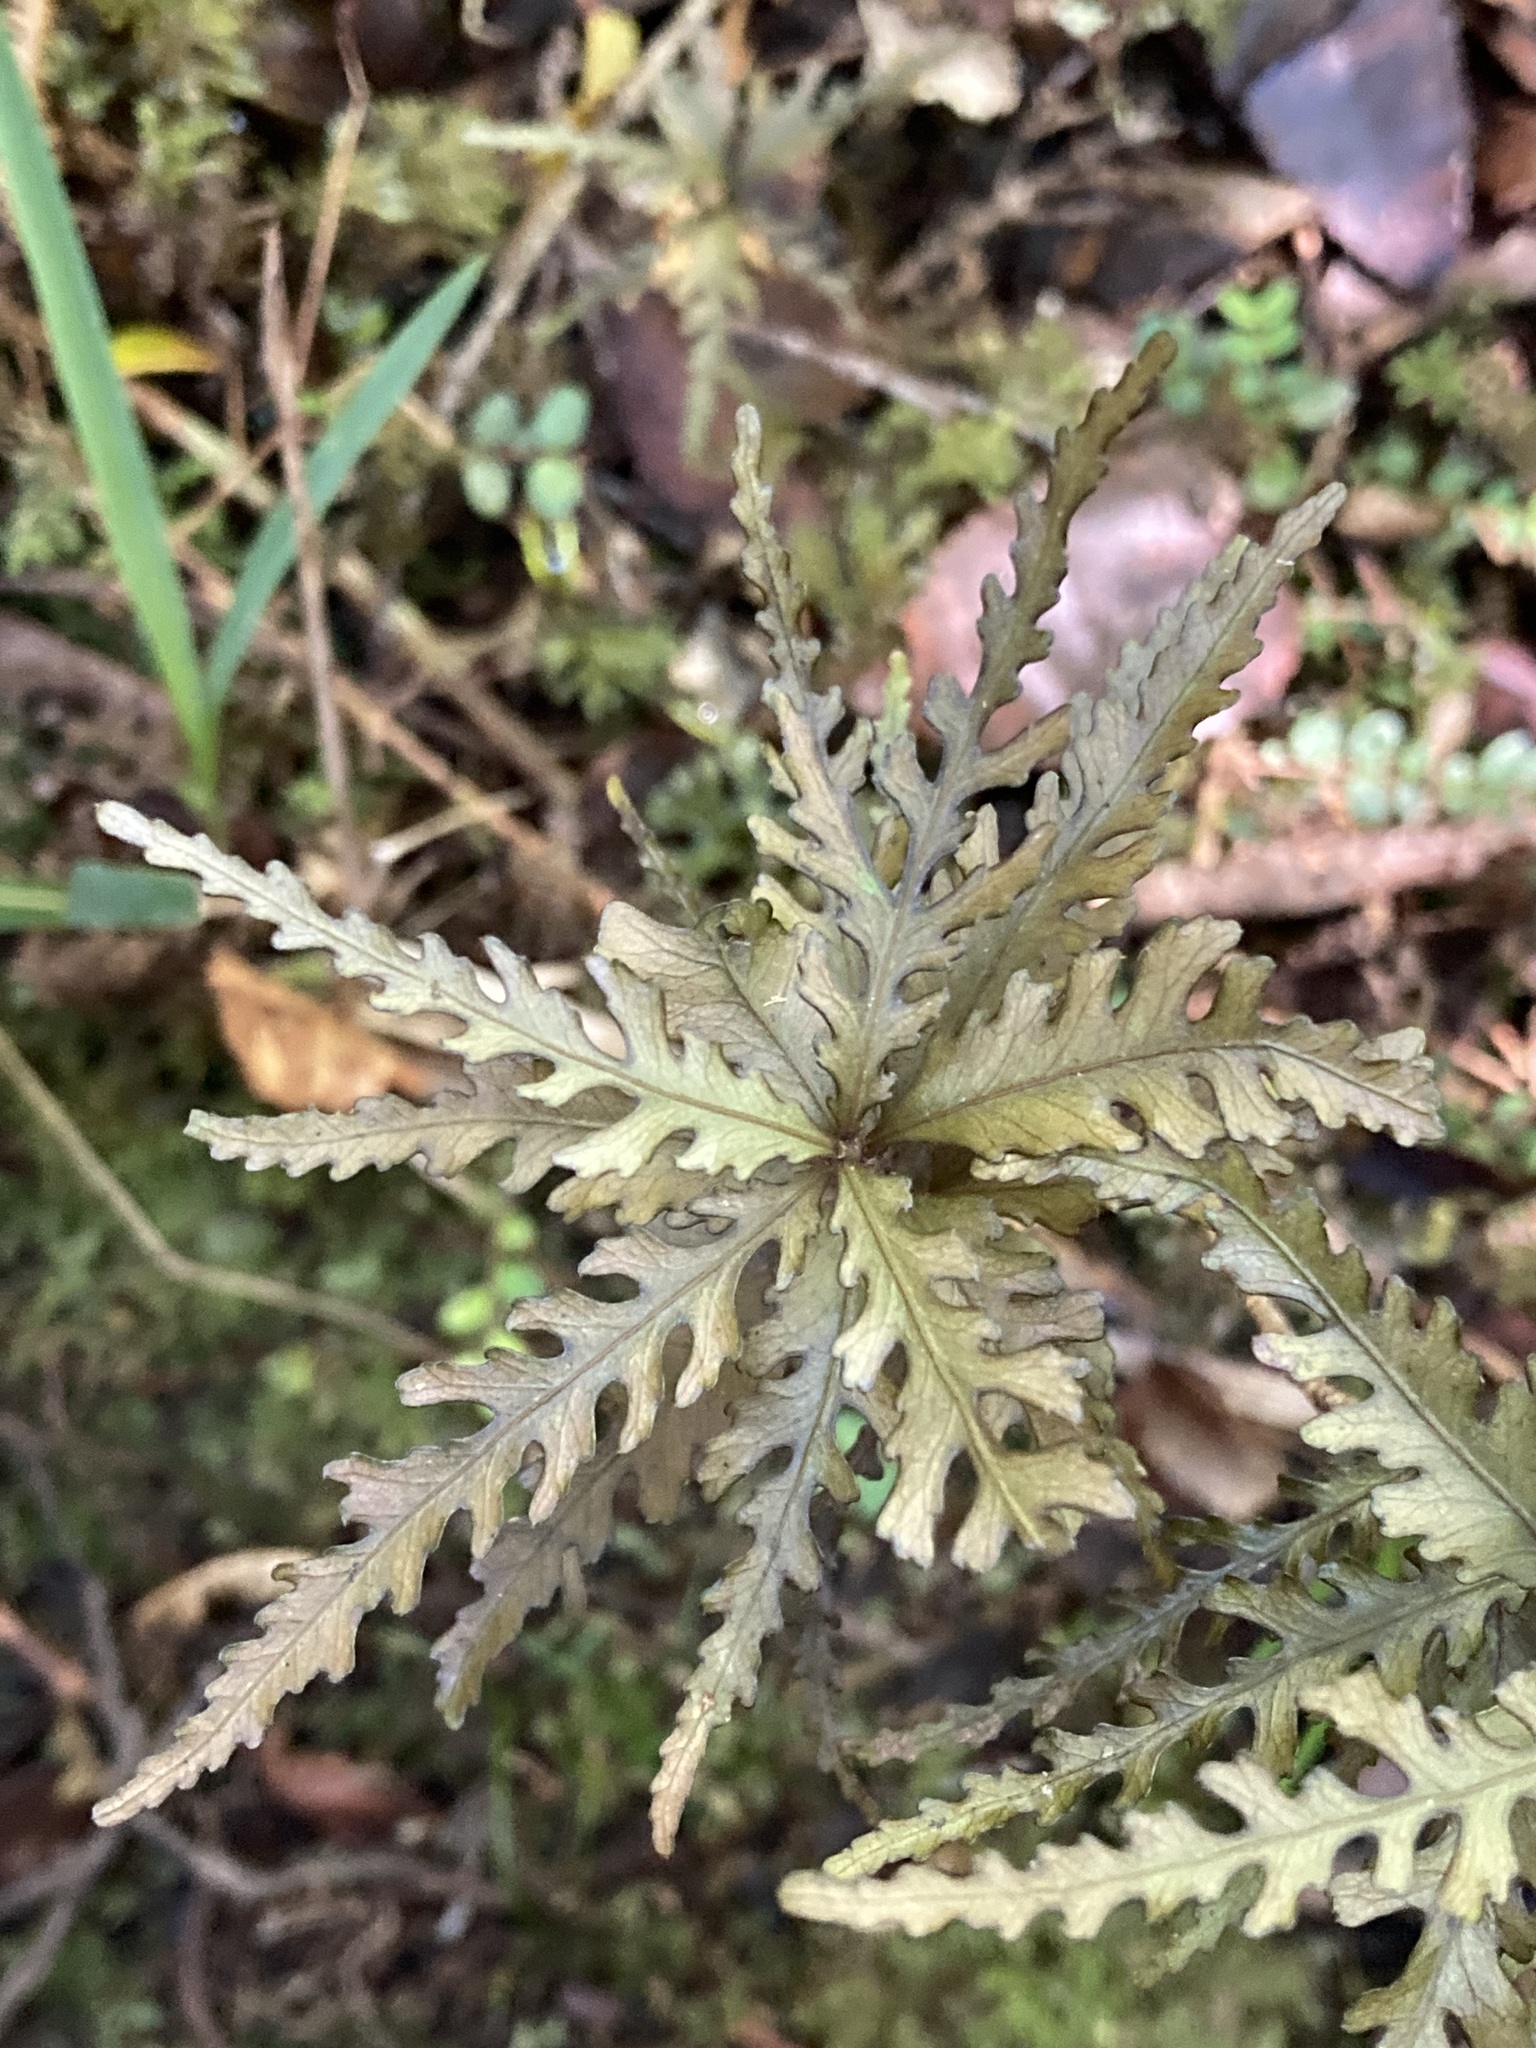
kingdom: Plantae
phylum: Tracheophyta
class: Magnoliopsida
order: Oxalidales
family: Elaeocarpaceae
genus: Elaeocarpus
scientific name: Elaeocarpus hookerianus
